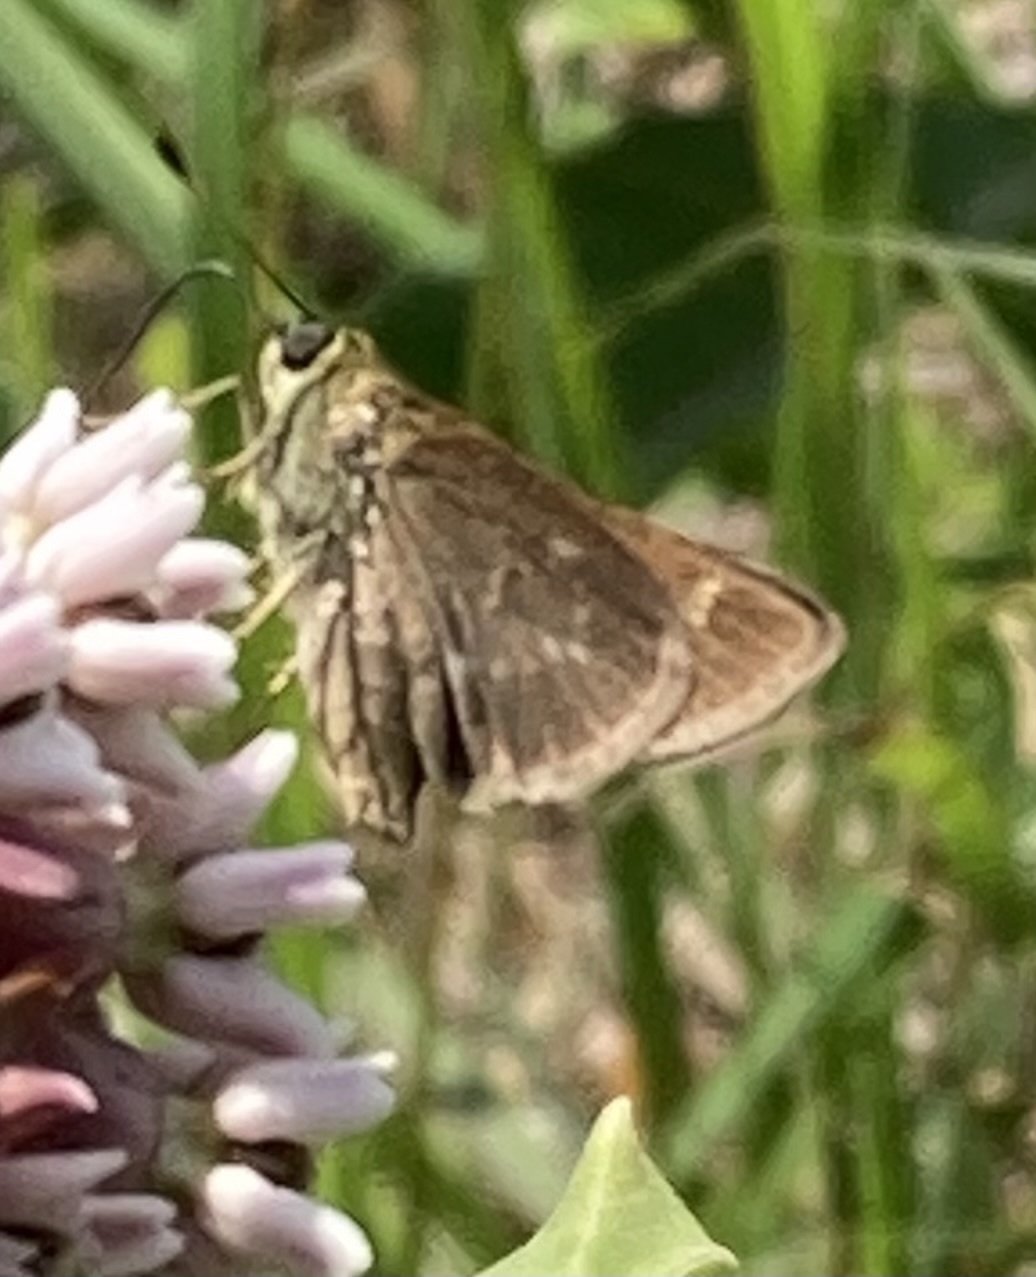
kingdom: Animalia
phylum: Arthropoda
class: Insecta
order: Lepidoptera
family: Hesperiidae
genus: Vernia
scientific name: Vernia verna
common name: Little glassywing
